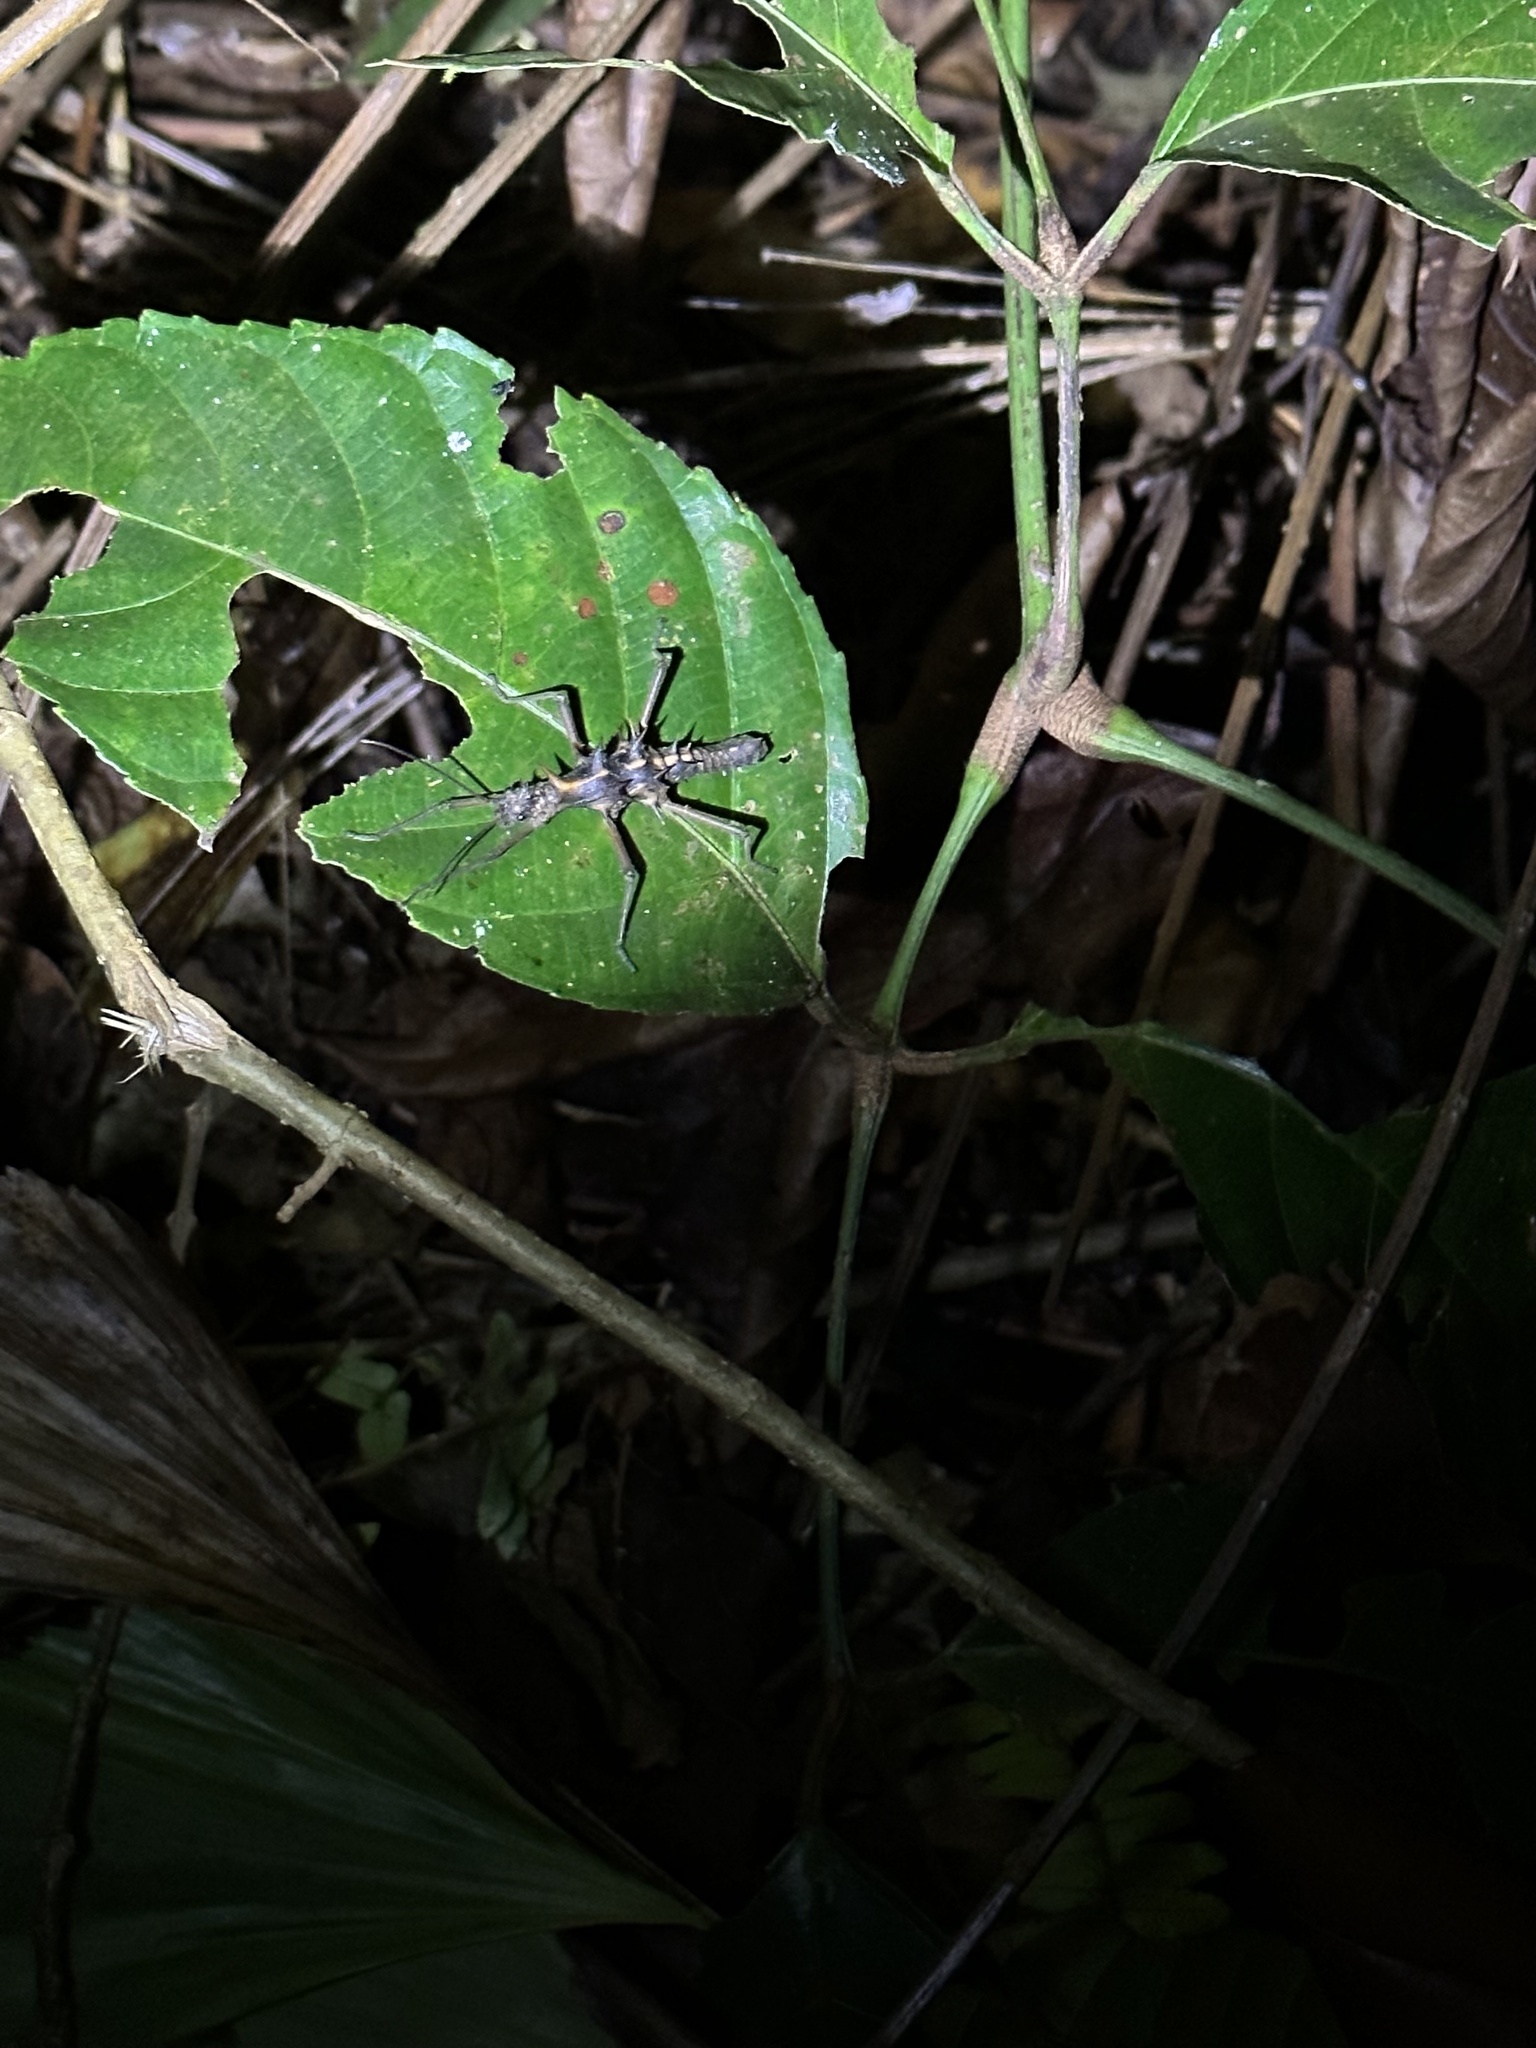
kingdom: Animalia
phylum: Arthropoda
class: Insecta
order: Phasmida
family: Heteropterygidae
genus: Epidares
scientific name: Epidares nolimetangere
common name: Touch me not stick insect
